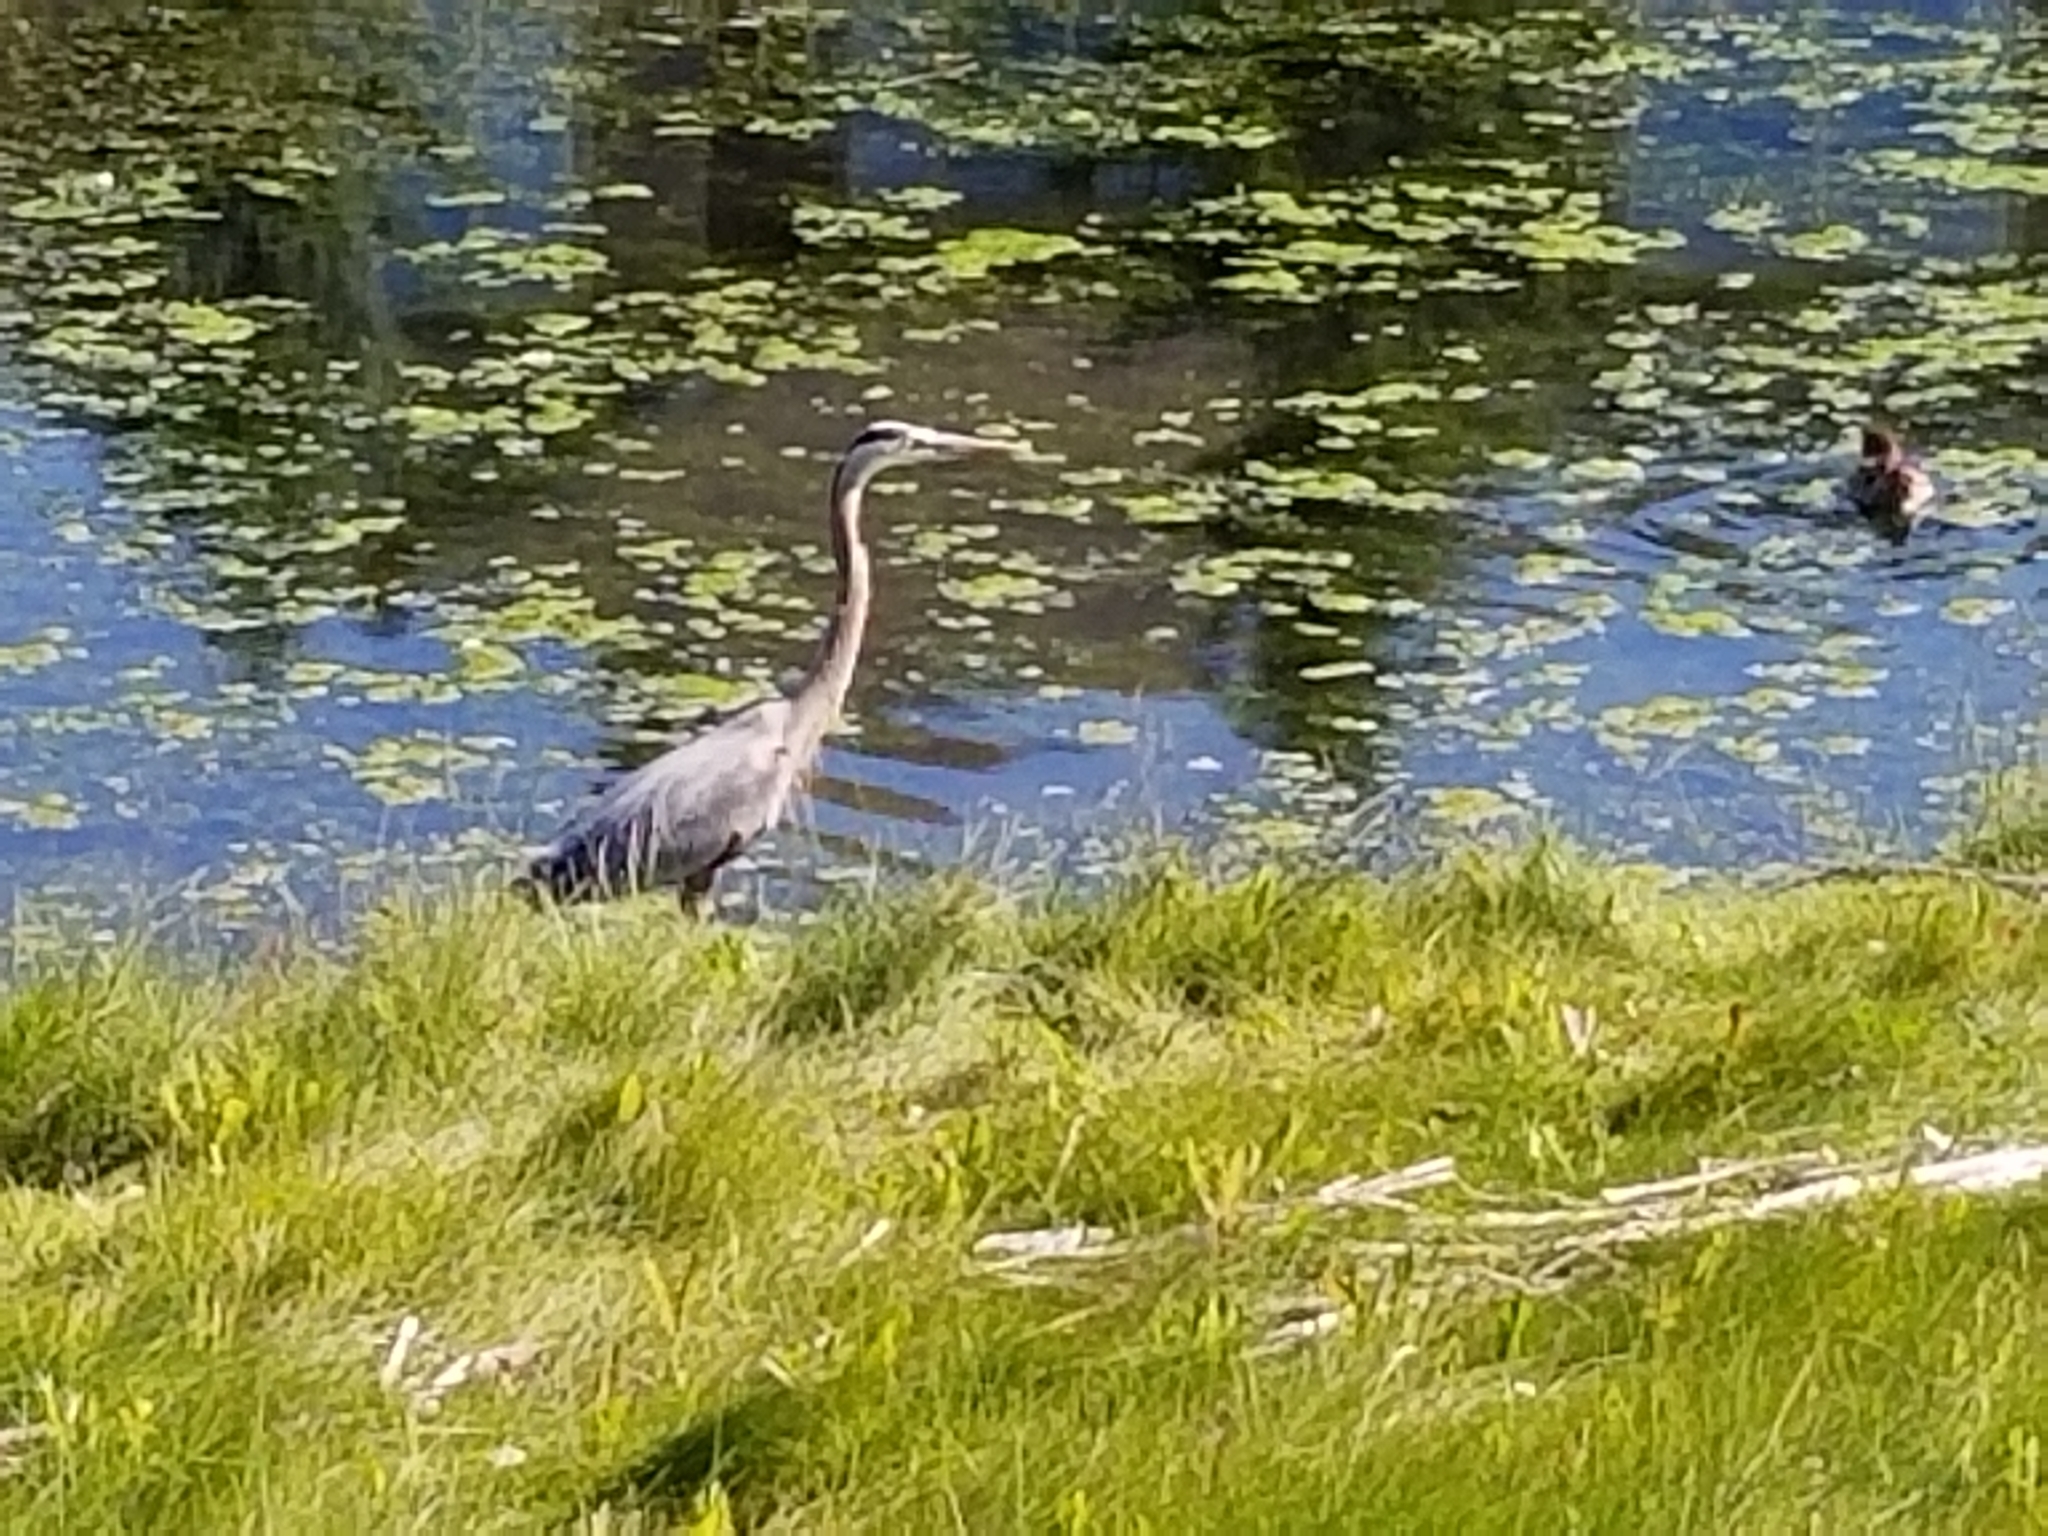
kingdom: Animalia
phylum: Chordata
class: Aves
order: Pelecaniformes
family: Ardeidae
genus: Ardea
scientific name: Ardea herodias
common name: Great blue heron
